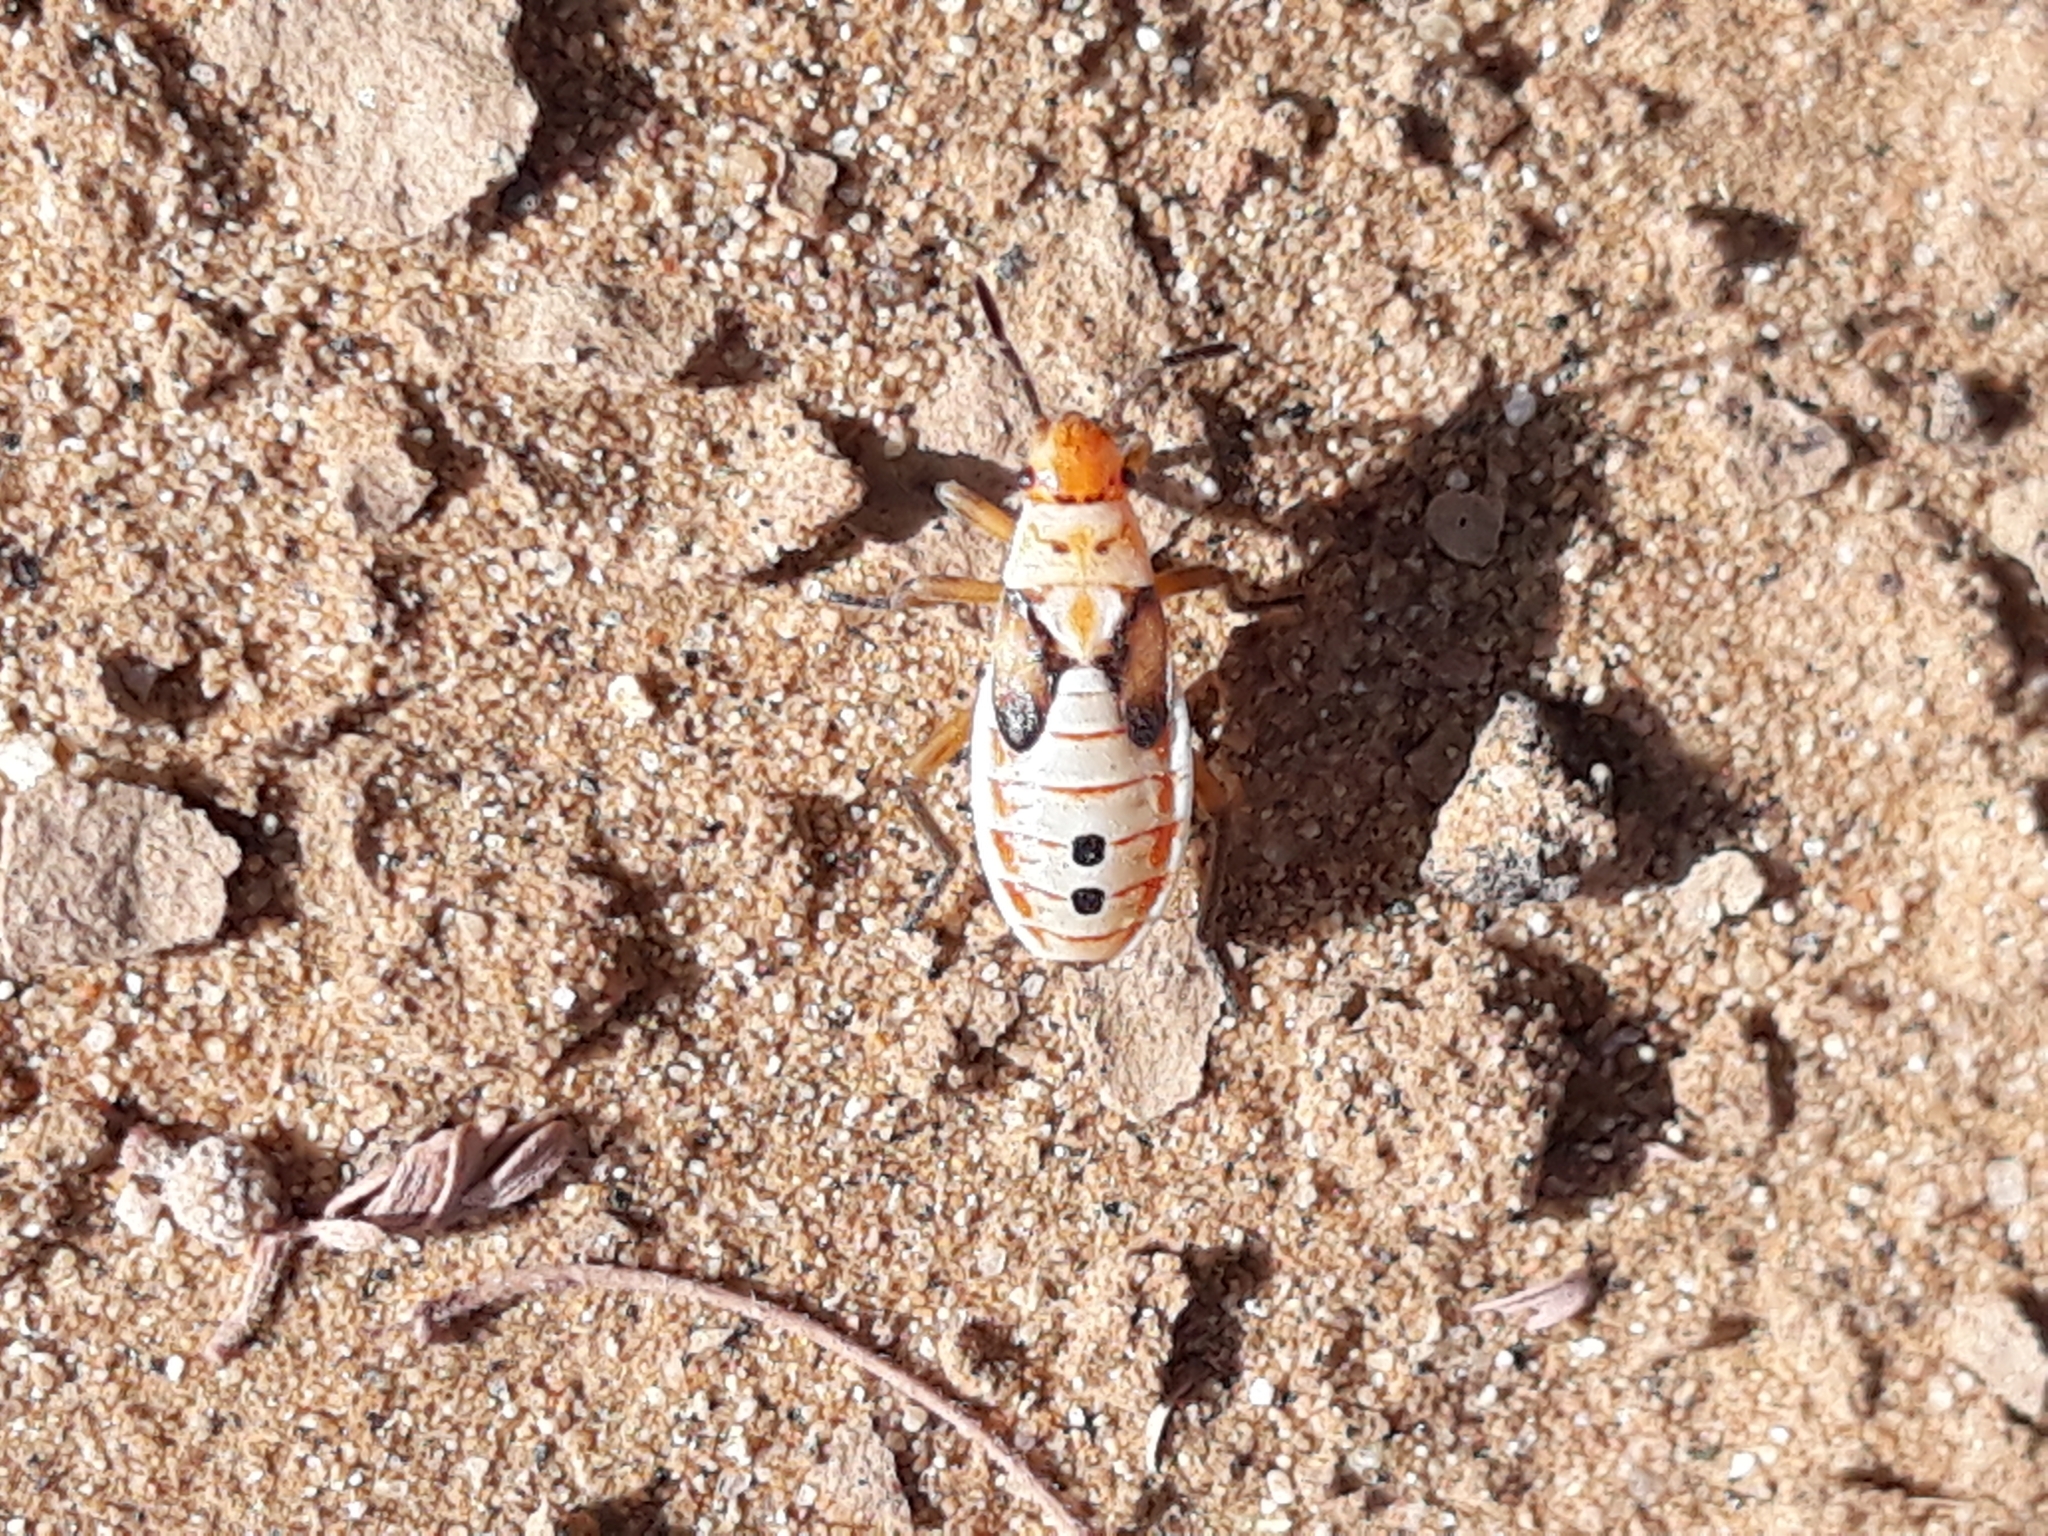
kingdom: Animalia
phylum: Arthropoda
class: Insecta
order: Hemiptera
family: Lygaeidae
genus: Cosmopleurus
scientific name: Cosmopleurus fulvipes
